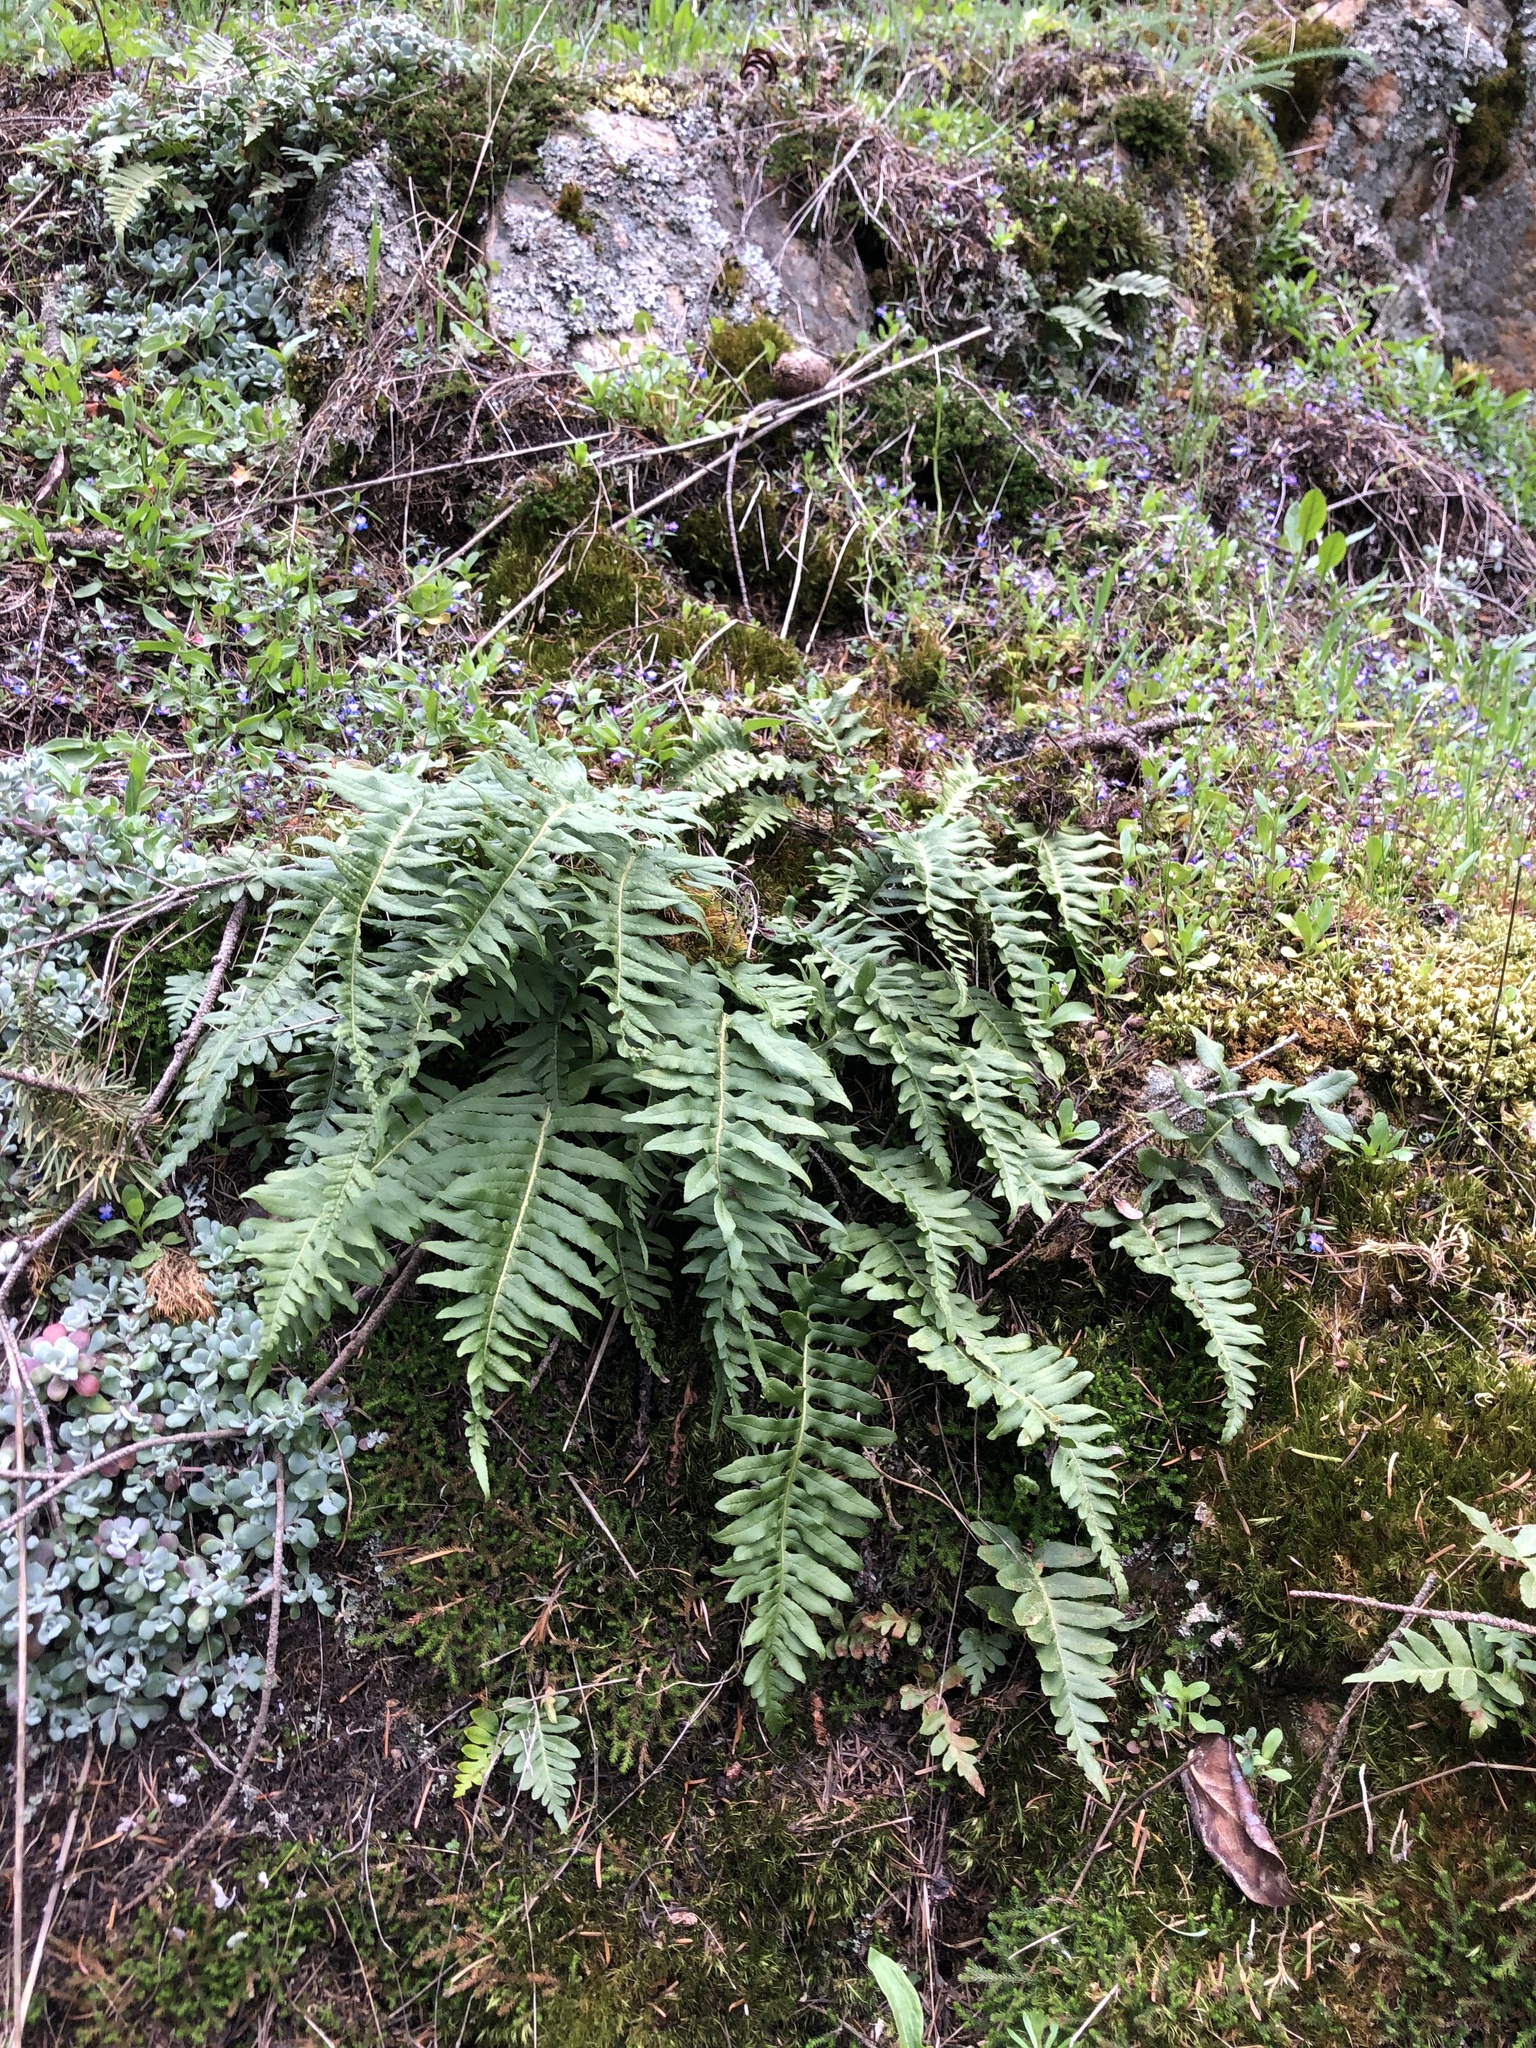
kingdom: Plantae
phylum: Tracheophyta
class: Polypodiopsida
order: Polypodiales
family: Polypodiaceae
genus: Polypodium
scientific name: Polypodium glycyrrhiza
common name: Licorice fern
